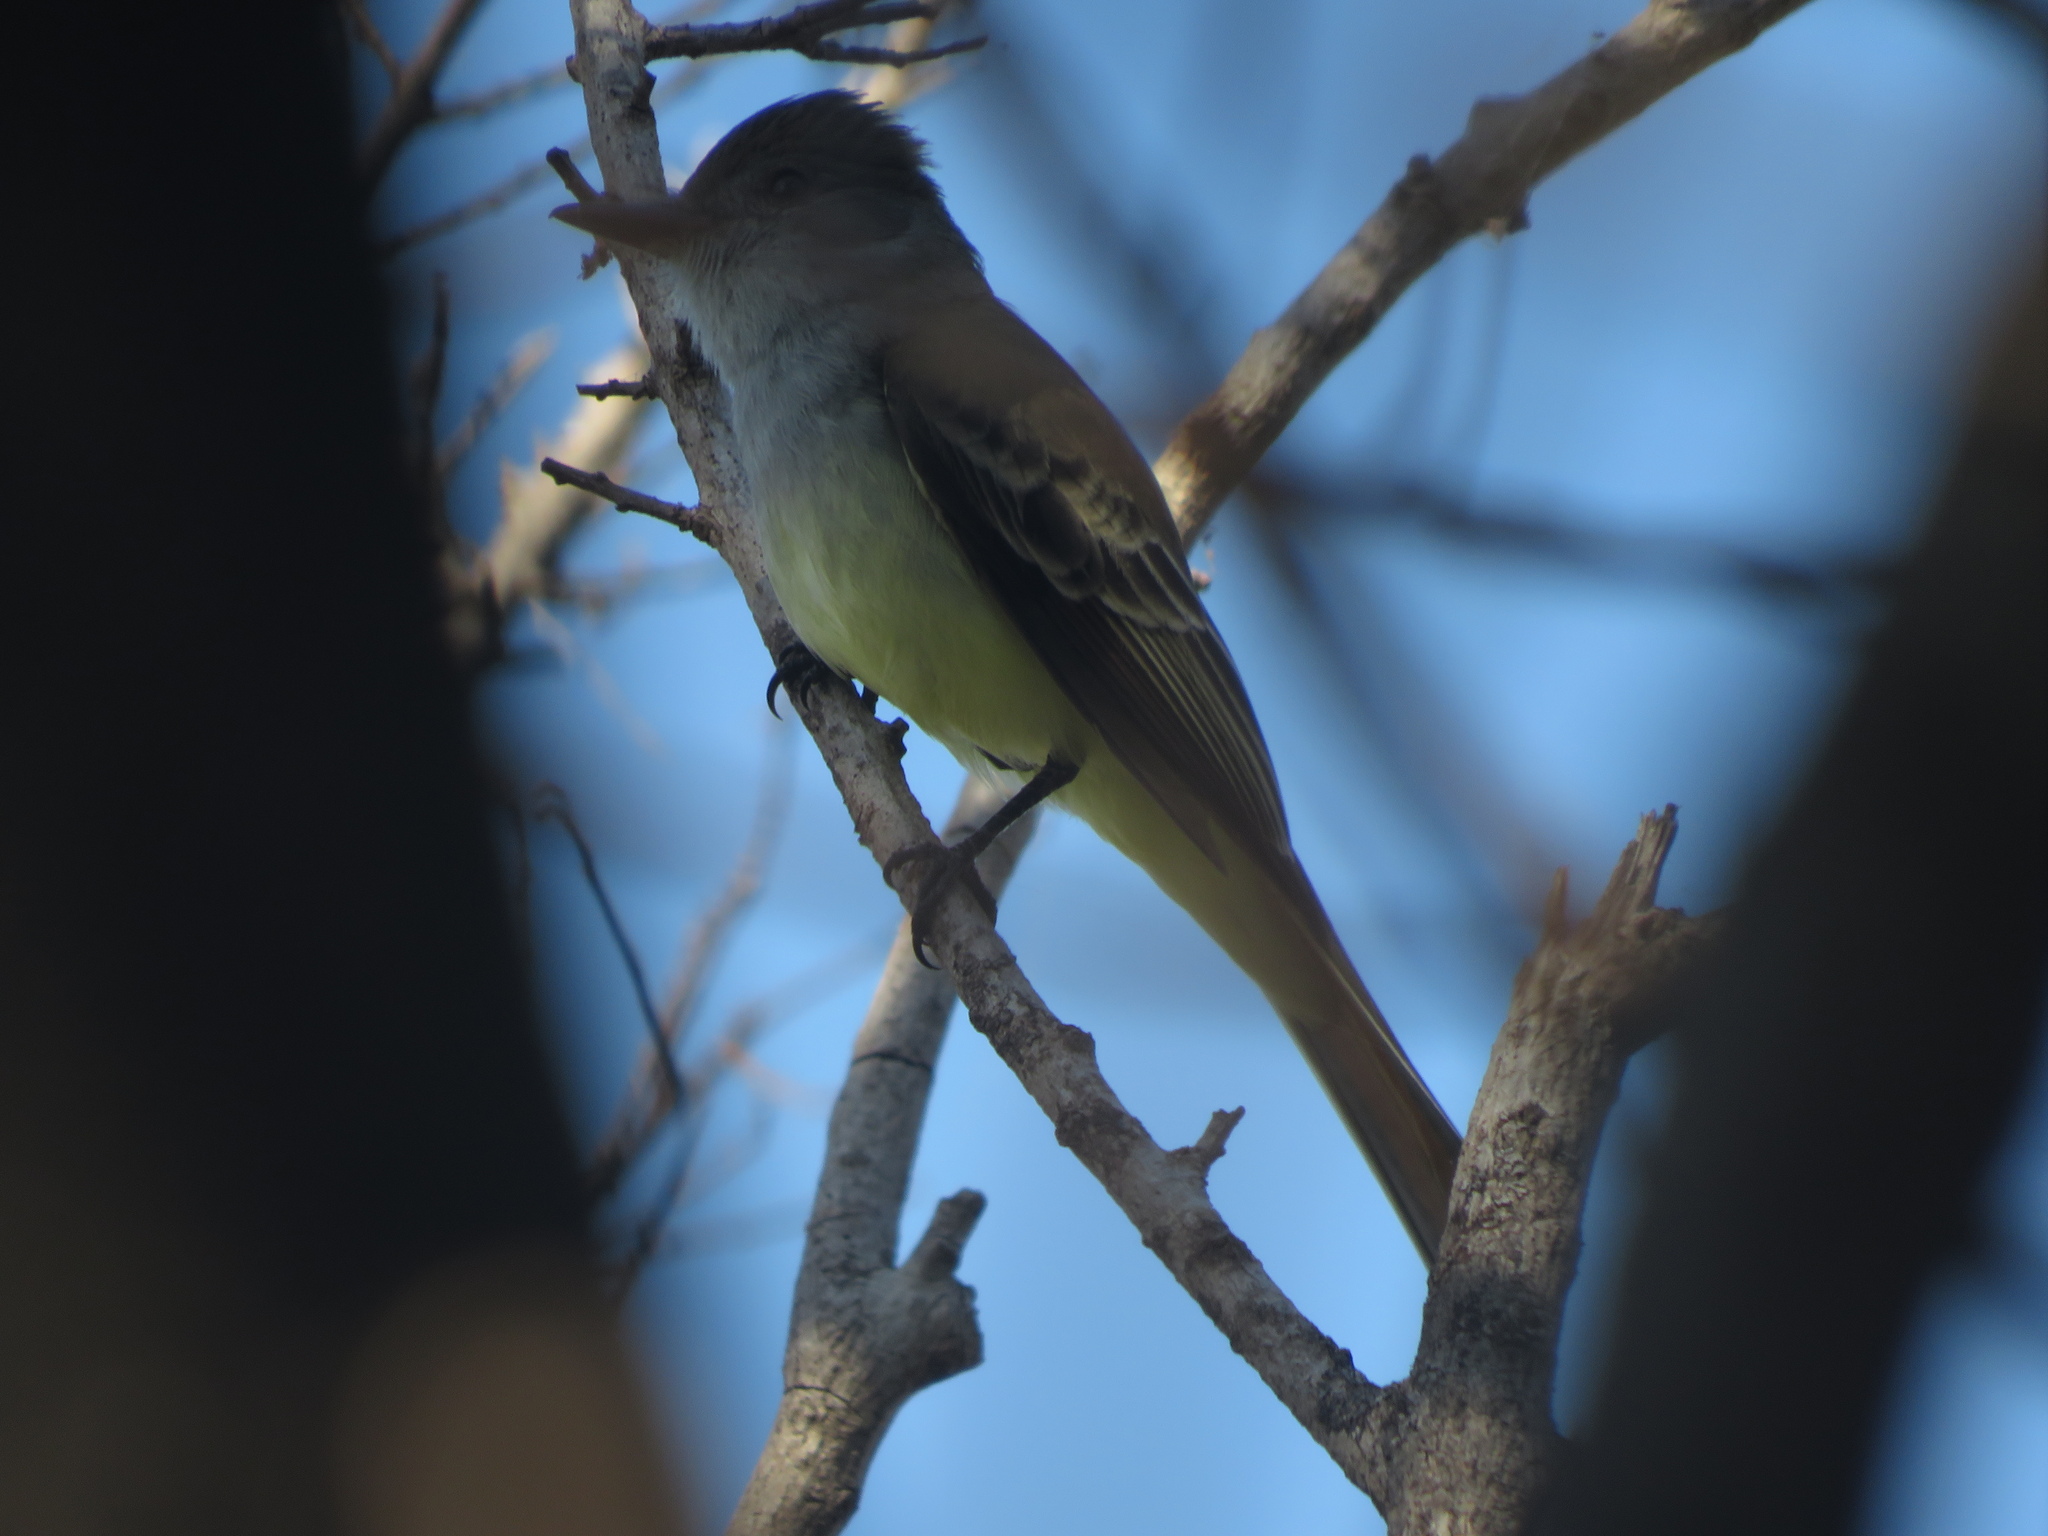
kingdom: Animalia
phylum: Chordata
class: Aves
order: Passeriformes
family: Tyrannidae
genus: Myiarchus
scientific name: Myiarchus ferox
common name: Short-crested flycatcher
